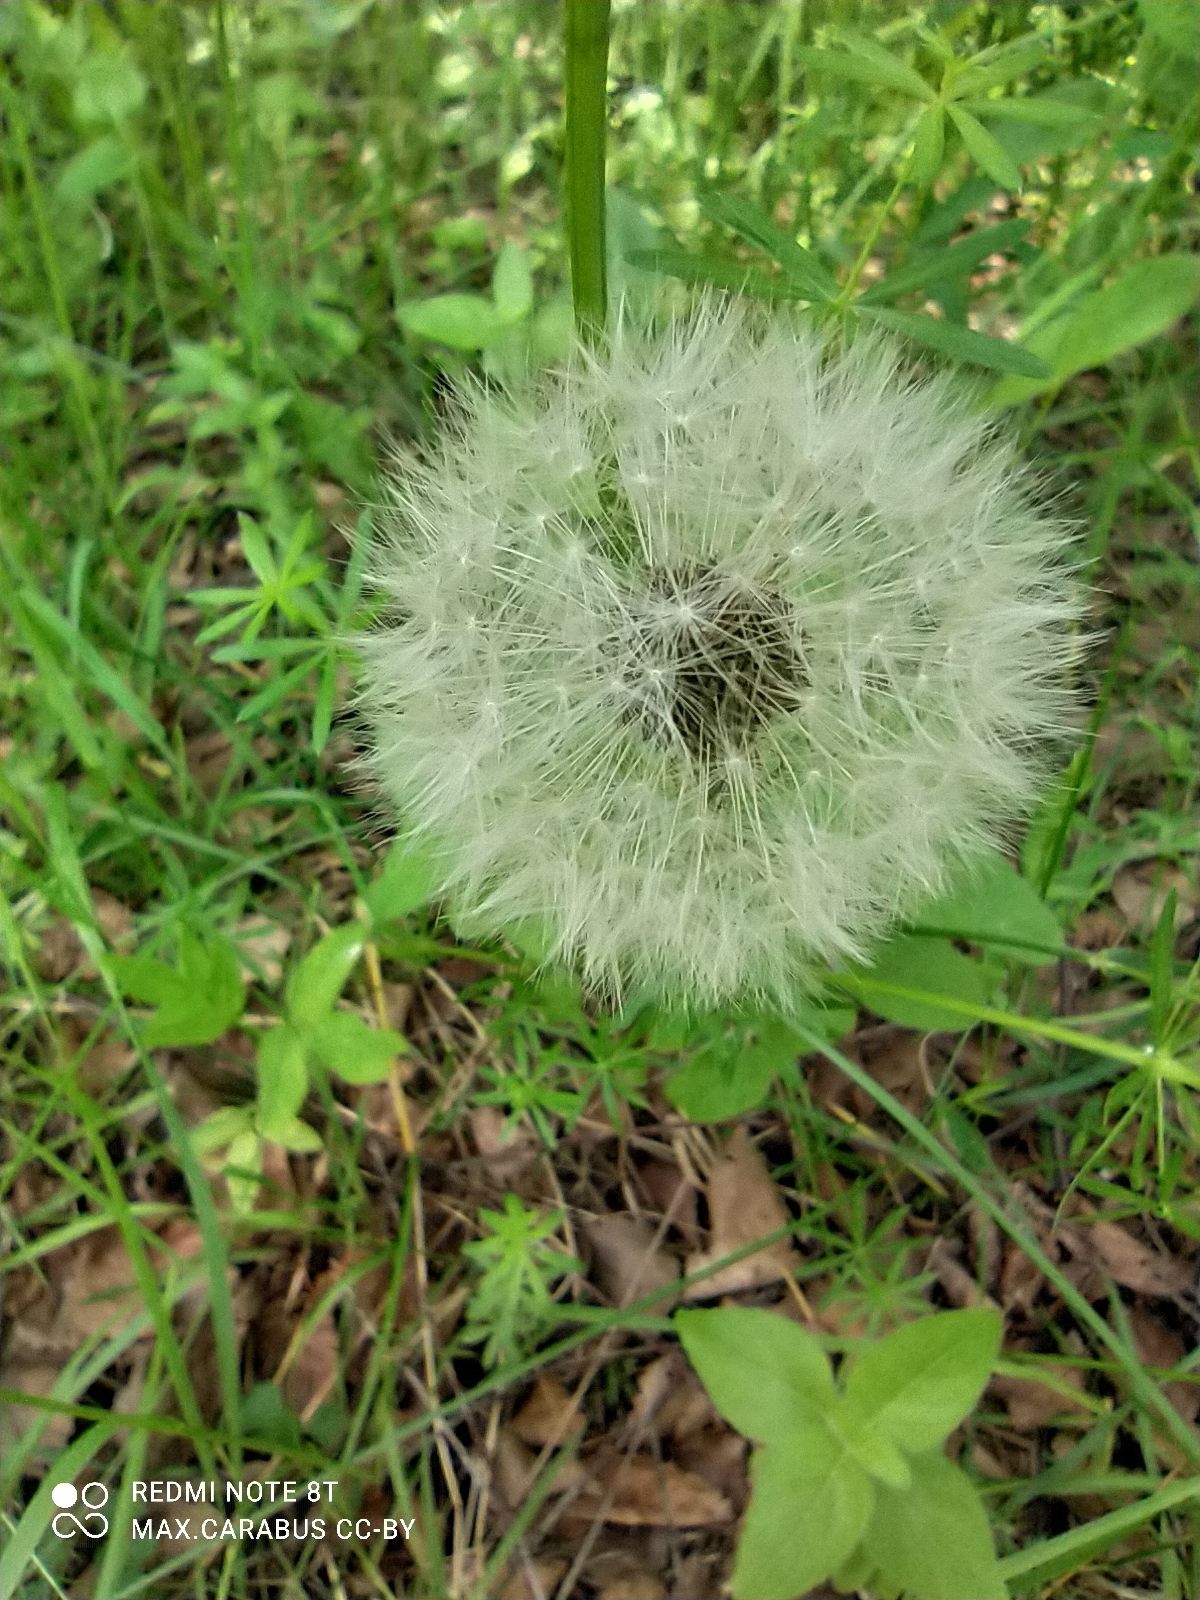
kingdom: Plantae
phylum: Tracheophyta
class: Magnoliopsida
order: Asterales
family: Asteraceae
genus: Taraxacum
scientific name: Taraxacum officinale
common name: Common dandelion
